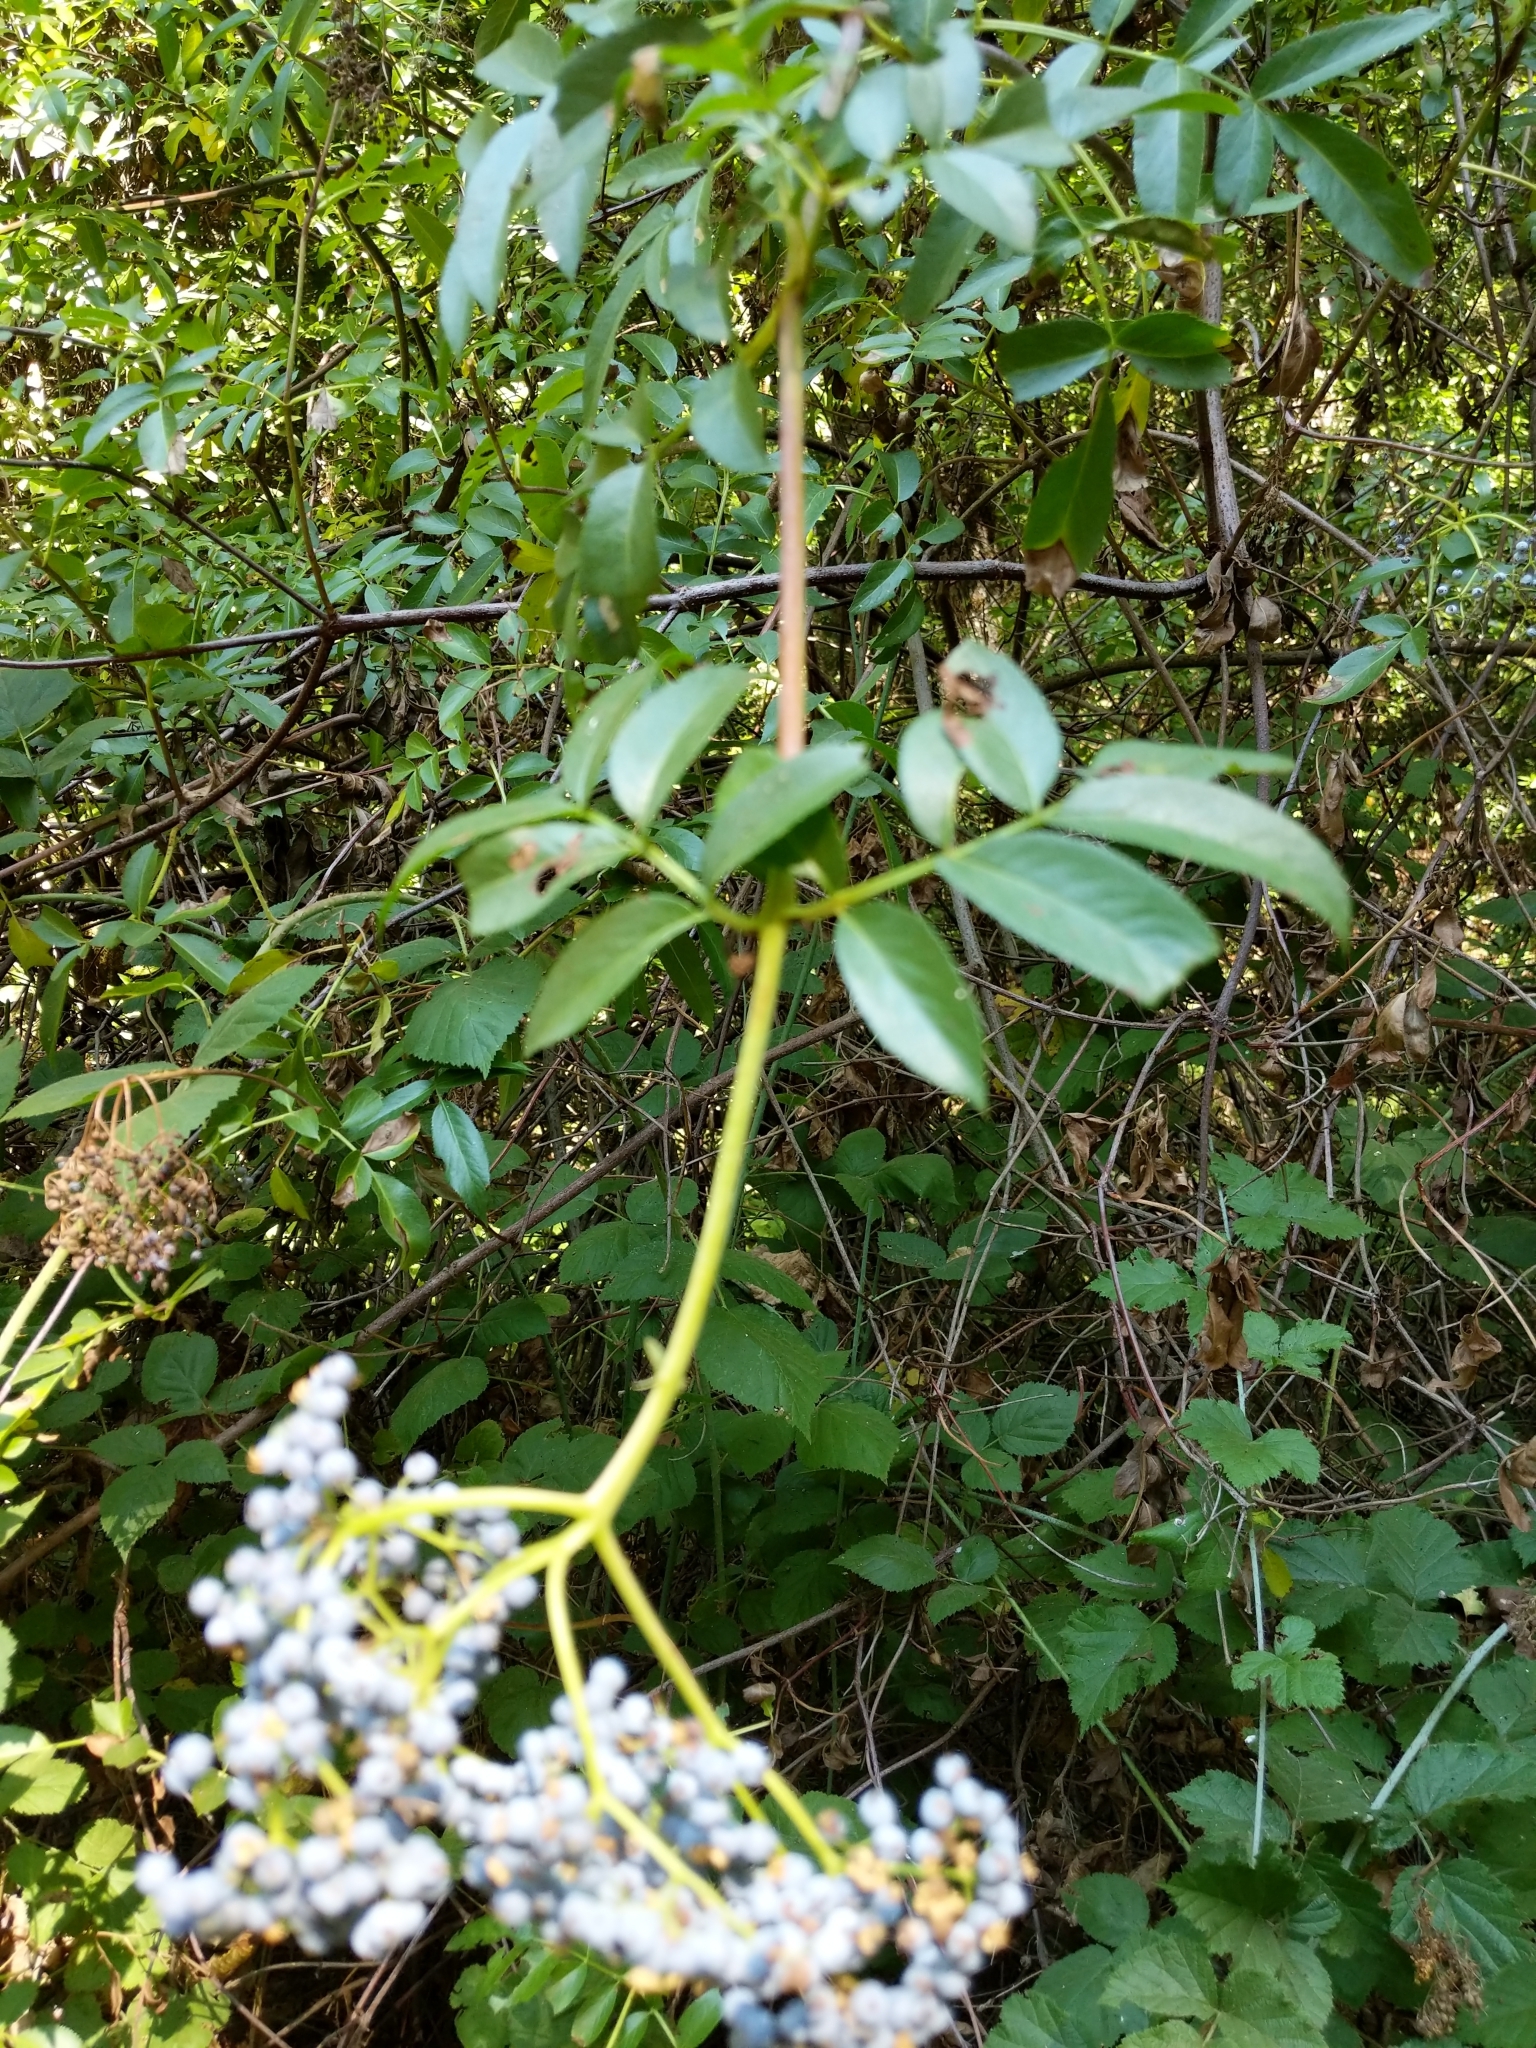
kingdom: Plantae
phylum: Tracheophyta
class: Magnoliopsida
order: Dipsacales
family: Viburnaceae
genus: Sambucus
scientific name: Sambucus cerulea
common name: Blue elder
